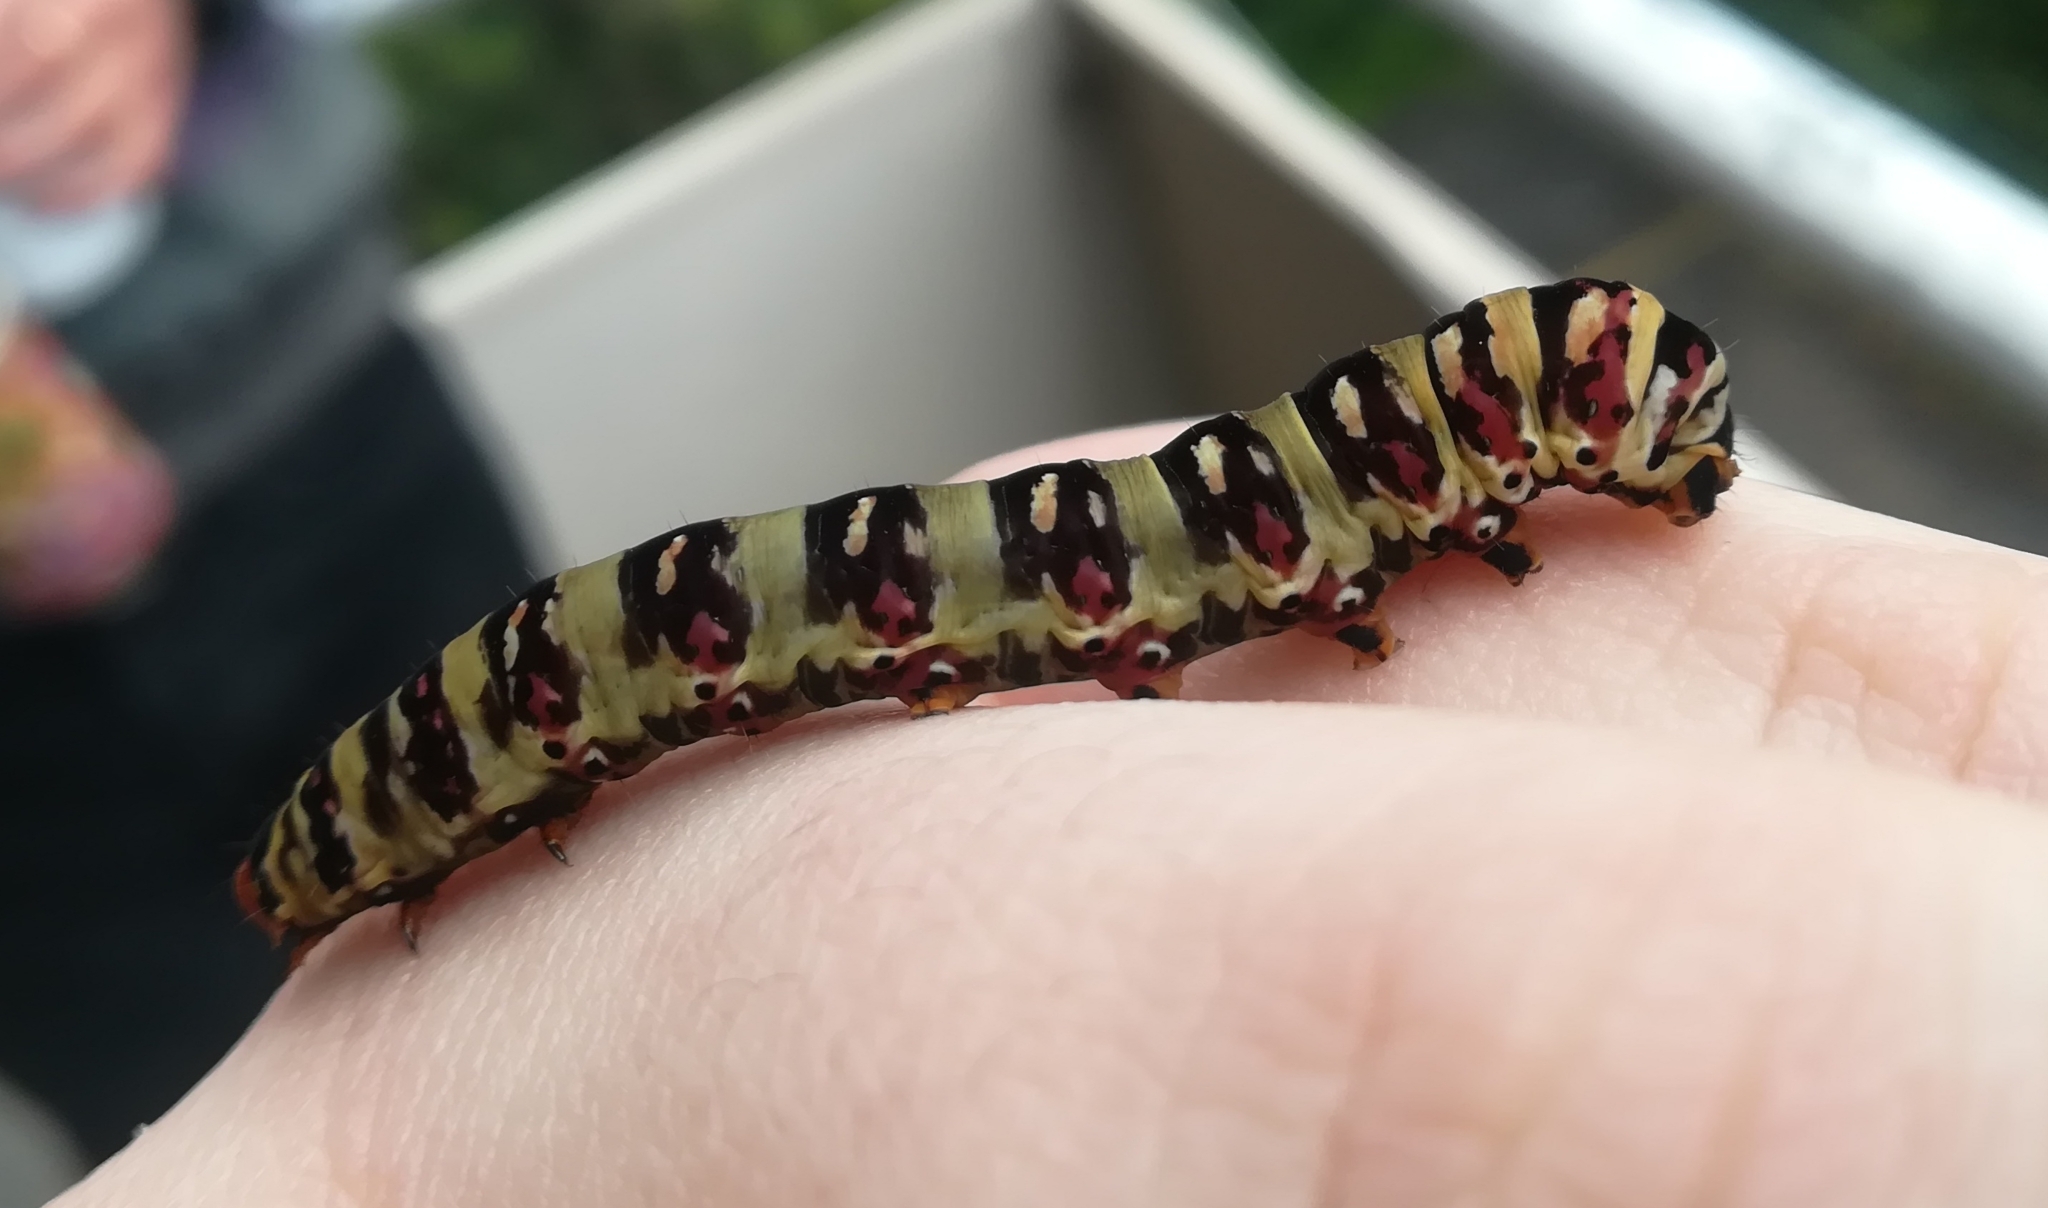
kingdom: Animalia
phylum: Arthropoda
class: Insecta
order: Lepidoptera
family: Noctuidae
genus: Klugeana
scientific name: Klugeana philoxalis
